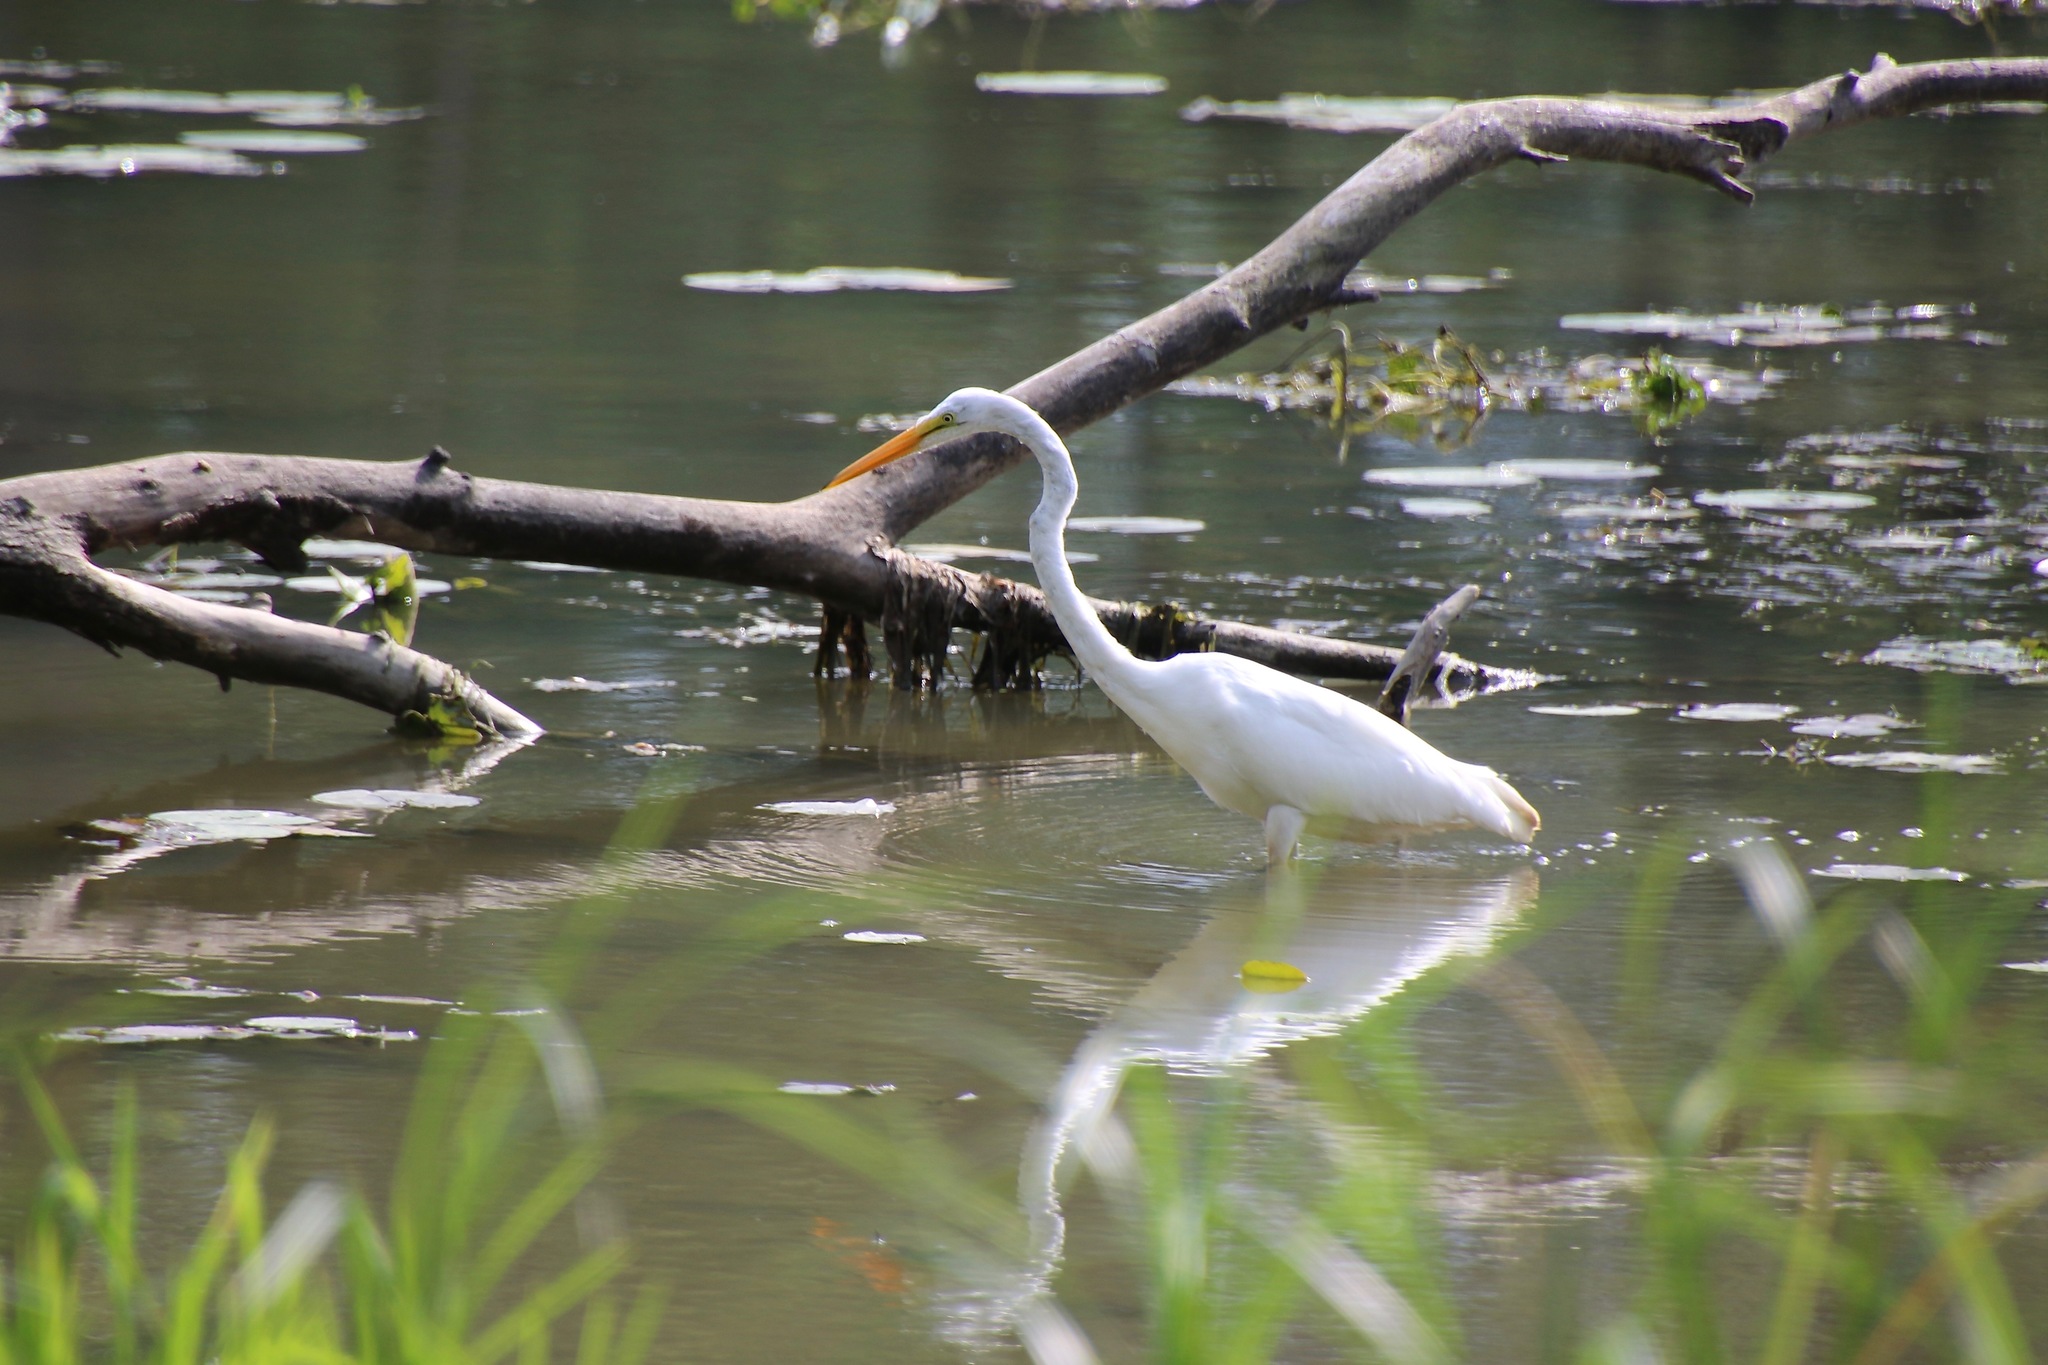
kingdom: Animalia
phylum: Chordata
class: Aves
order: Pelecaniformes
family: Ardeidae
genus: Ardea
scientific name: Ardea alba
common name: Great egret
